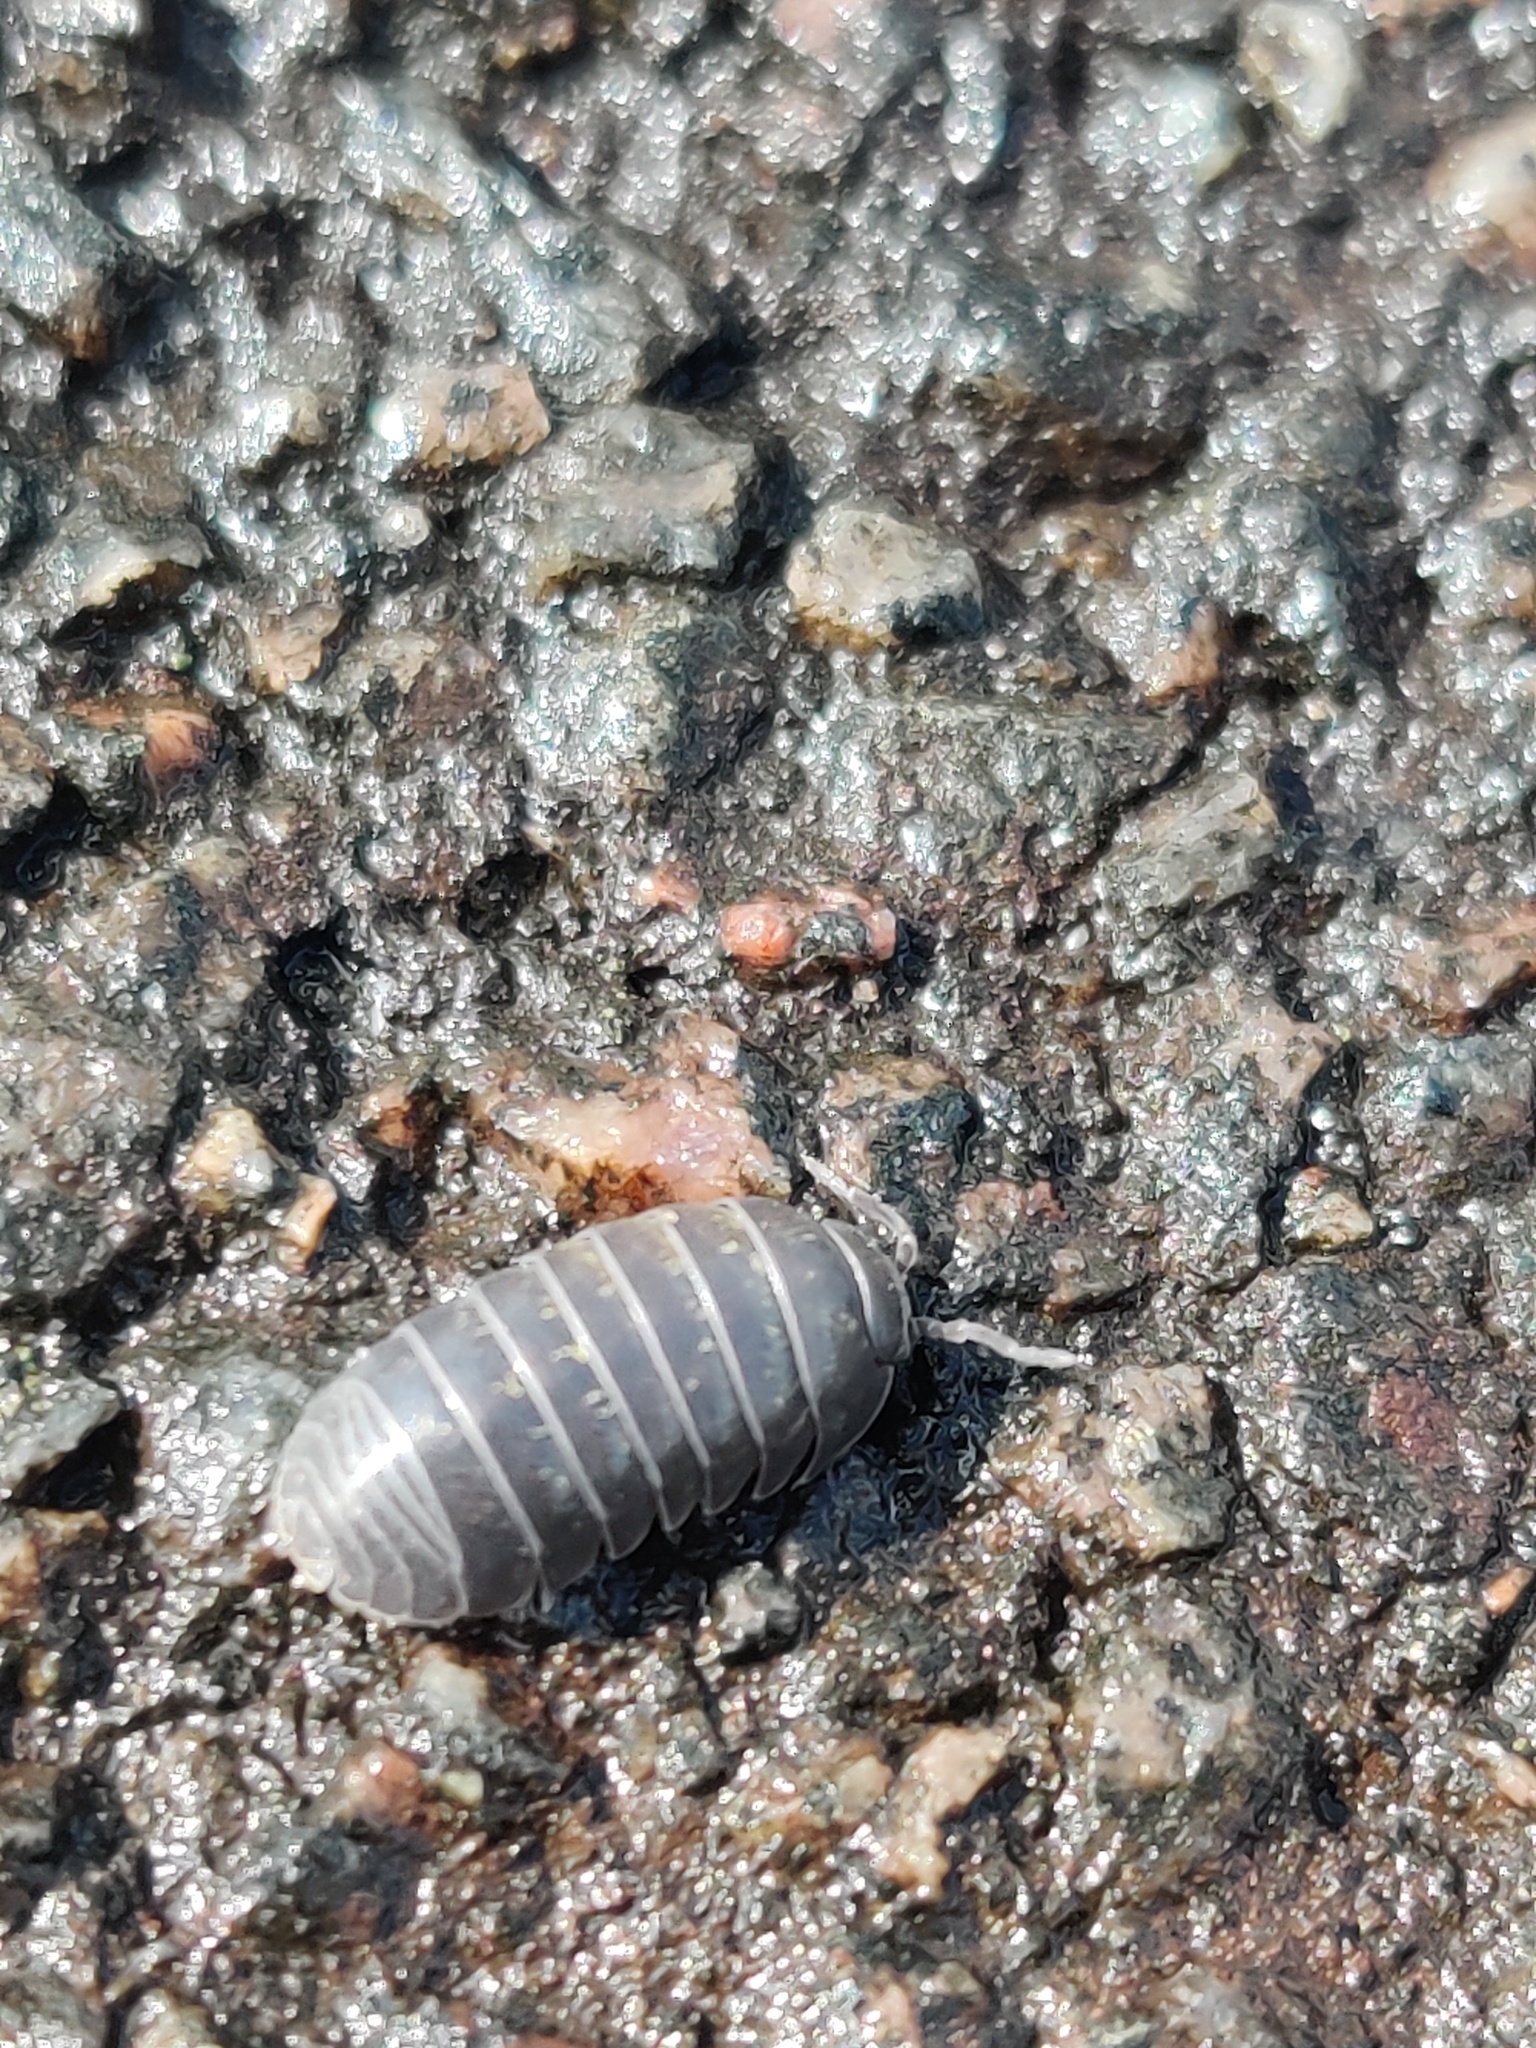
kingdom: Animalia
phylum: Arthropoda
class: Malacostraca
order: Isopoda
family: Armadillidiidae
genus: Armadillidium
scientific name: Armadillidium vulgare
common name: Common pill woodlouse
